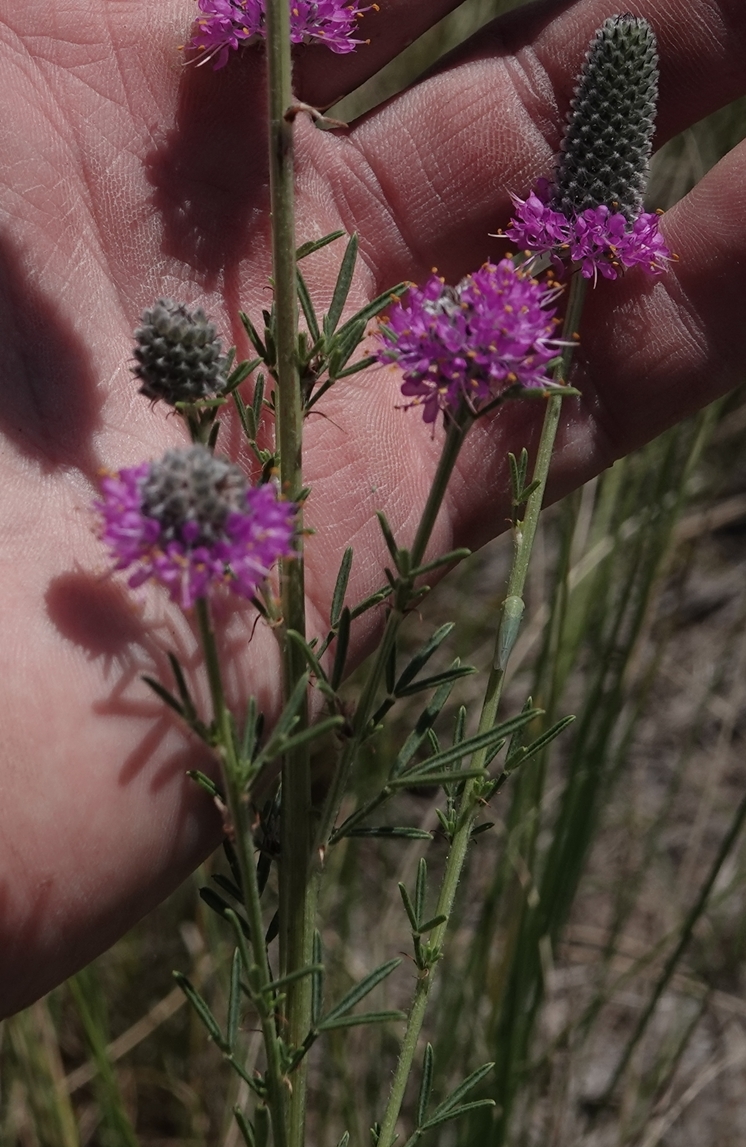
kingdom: Plantae
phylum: Tracheophyta
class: Magnoliopsida
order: Fabales
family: Fabaceae
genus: Dalea
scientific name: Dalea purpurea
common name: Purple prairie-clover
